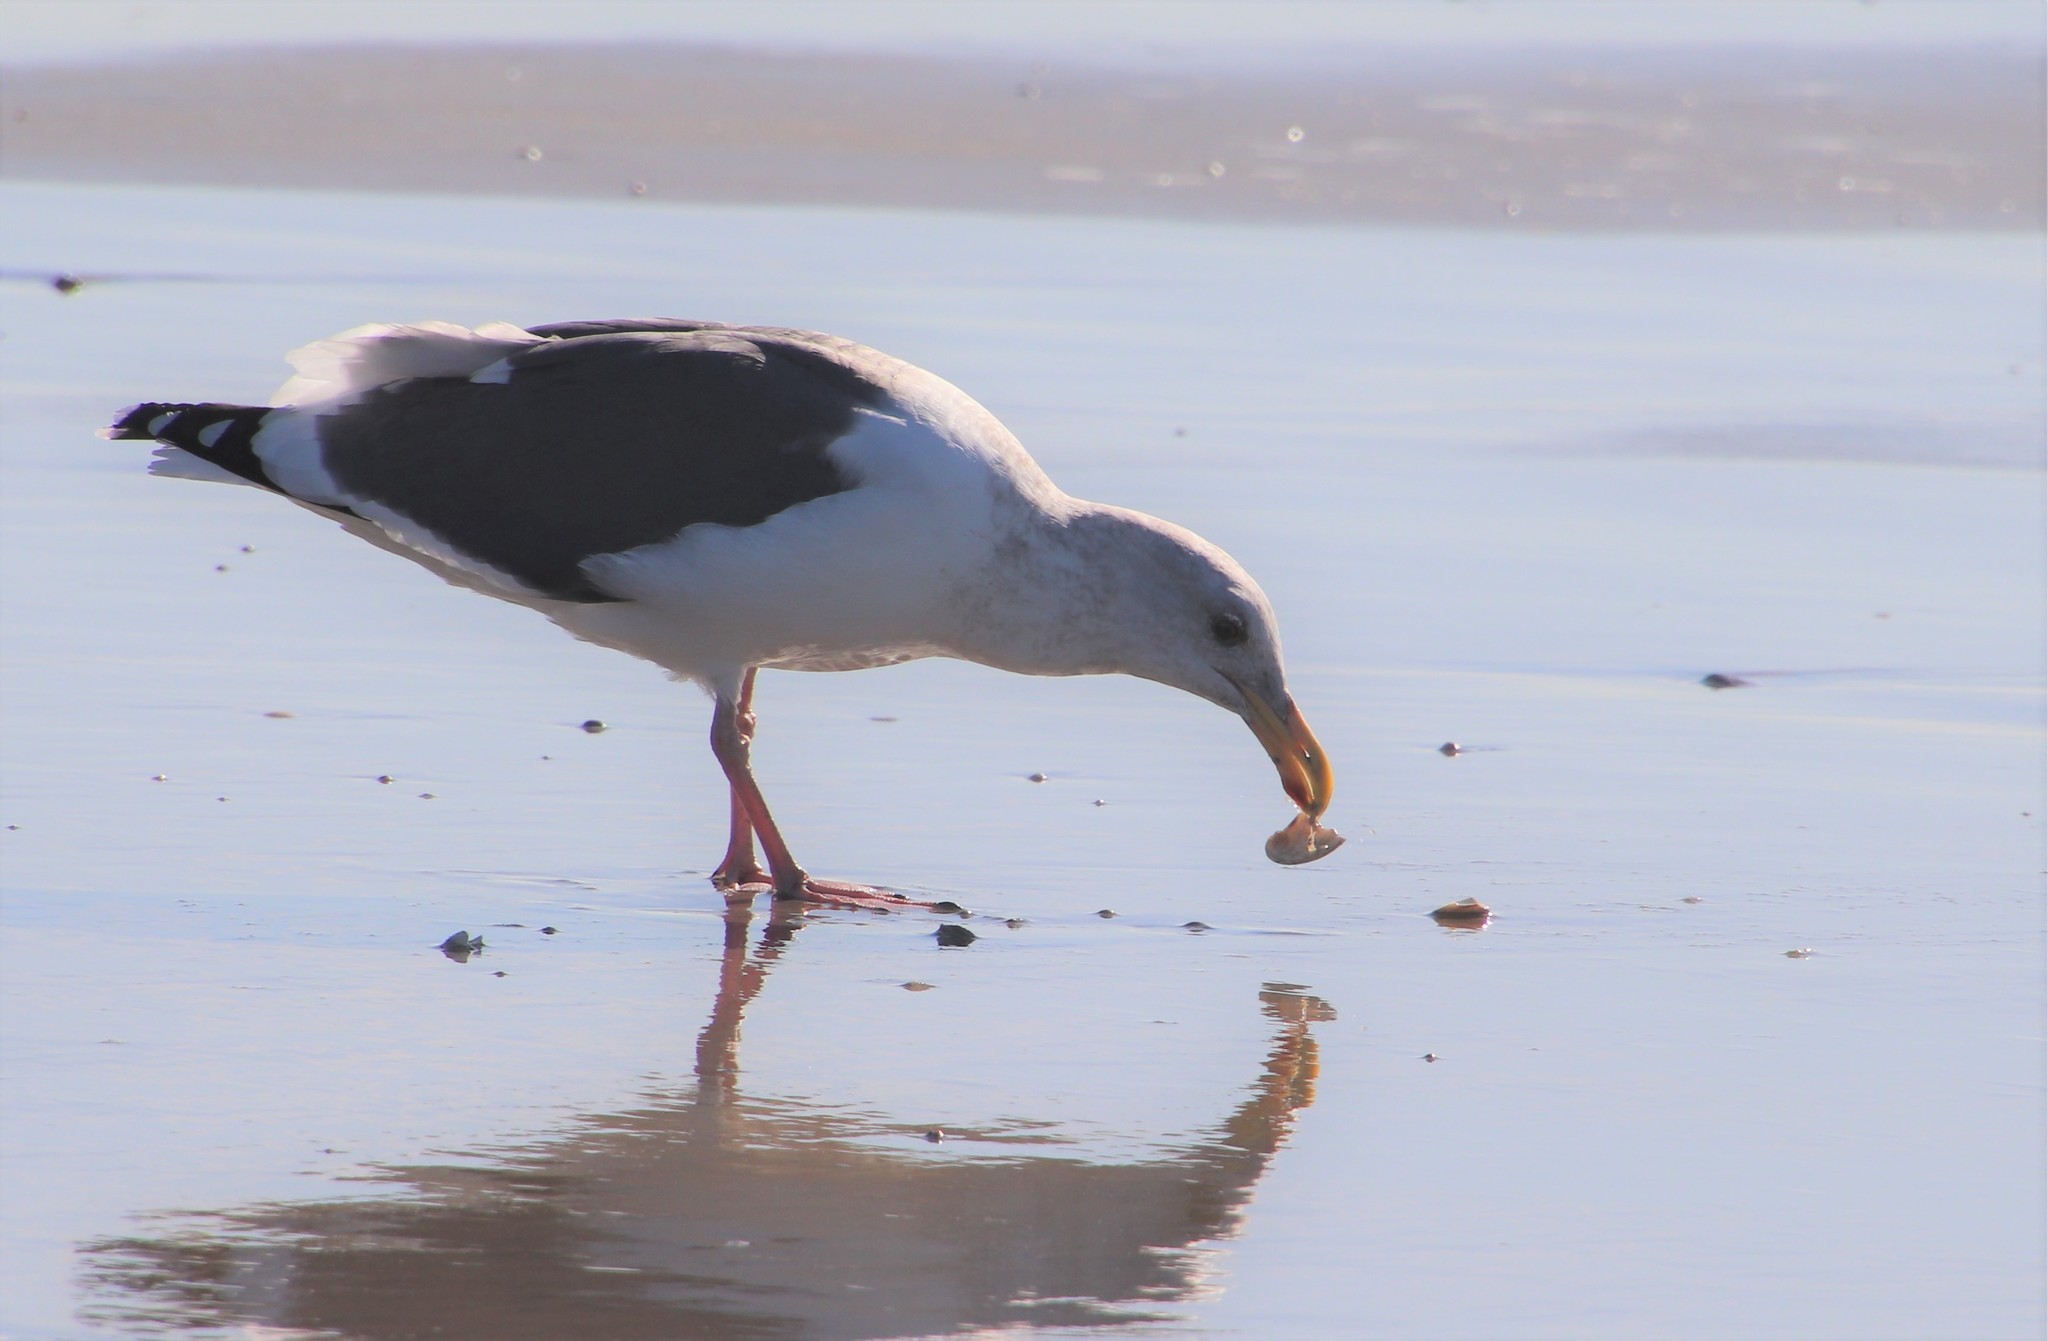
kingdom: Animalia
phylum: Chordata
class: Aves
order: Charadriiformes
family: Laridae
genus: Larus
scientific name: Larus occidentalis
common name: Western gull
